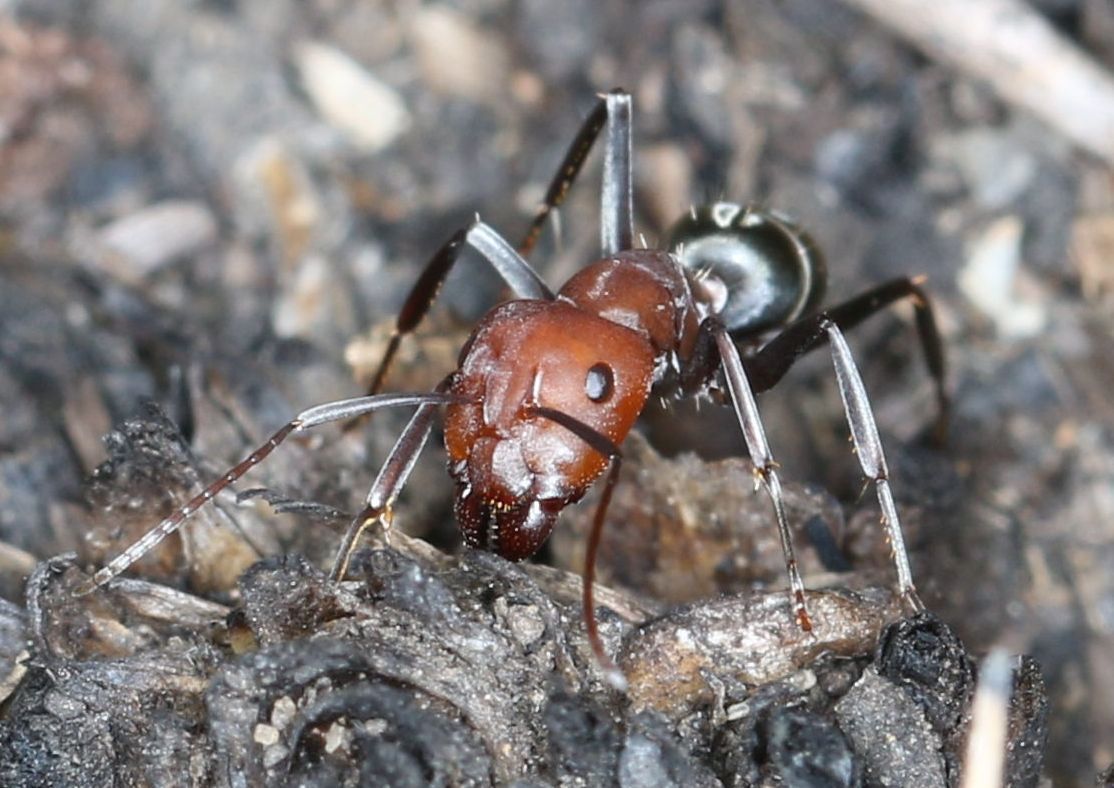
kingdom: Animalia
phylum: Arthropoda
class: Insecta
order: Hymenoptera
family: Formicidae
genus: Camponotus
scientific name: Camponotus vestitus
